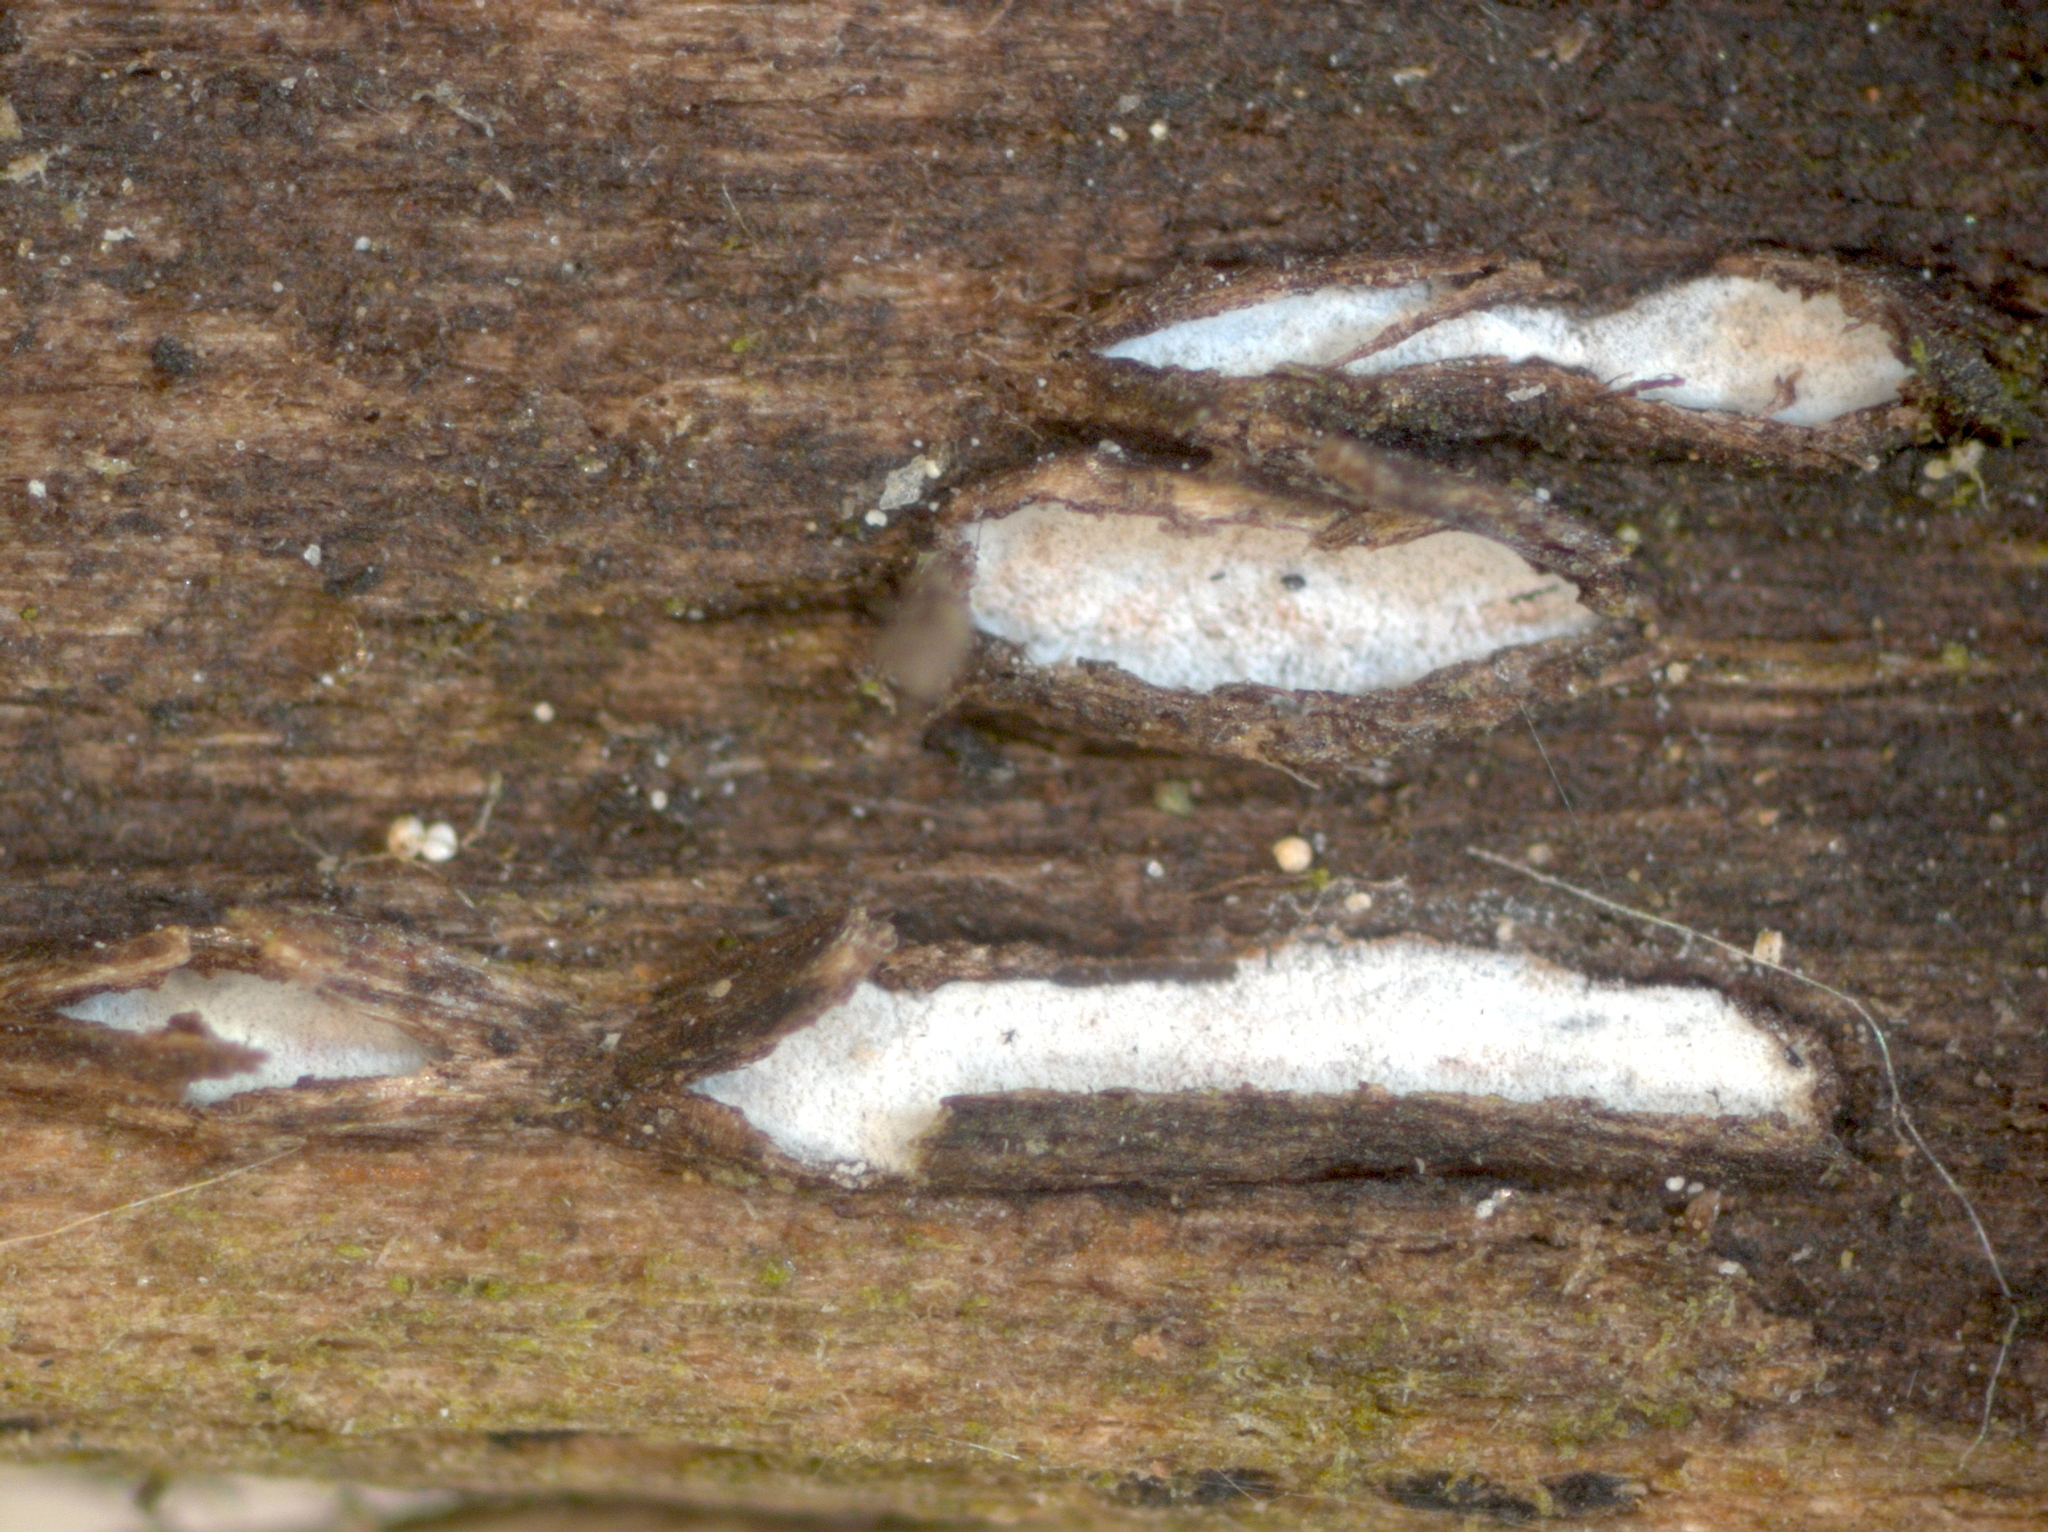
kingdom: Fungi
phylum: Ascomycota
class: Leotiomycetes
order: Chaetomellales
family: Marthamycetaceae
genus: Propolis
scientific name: Propolis farinosa
